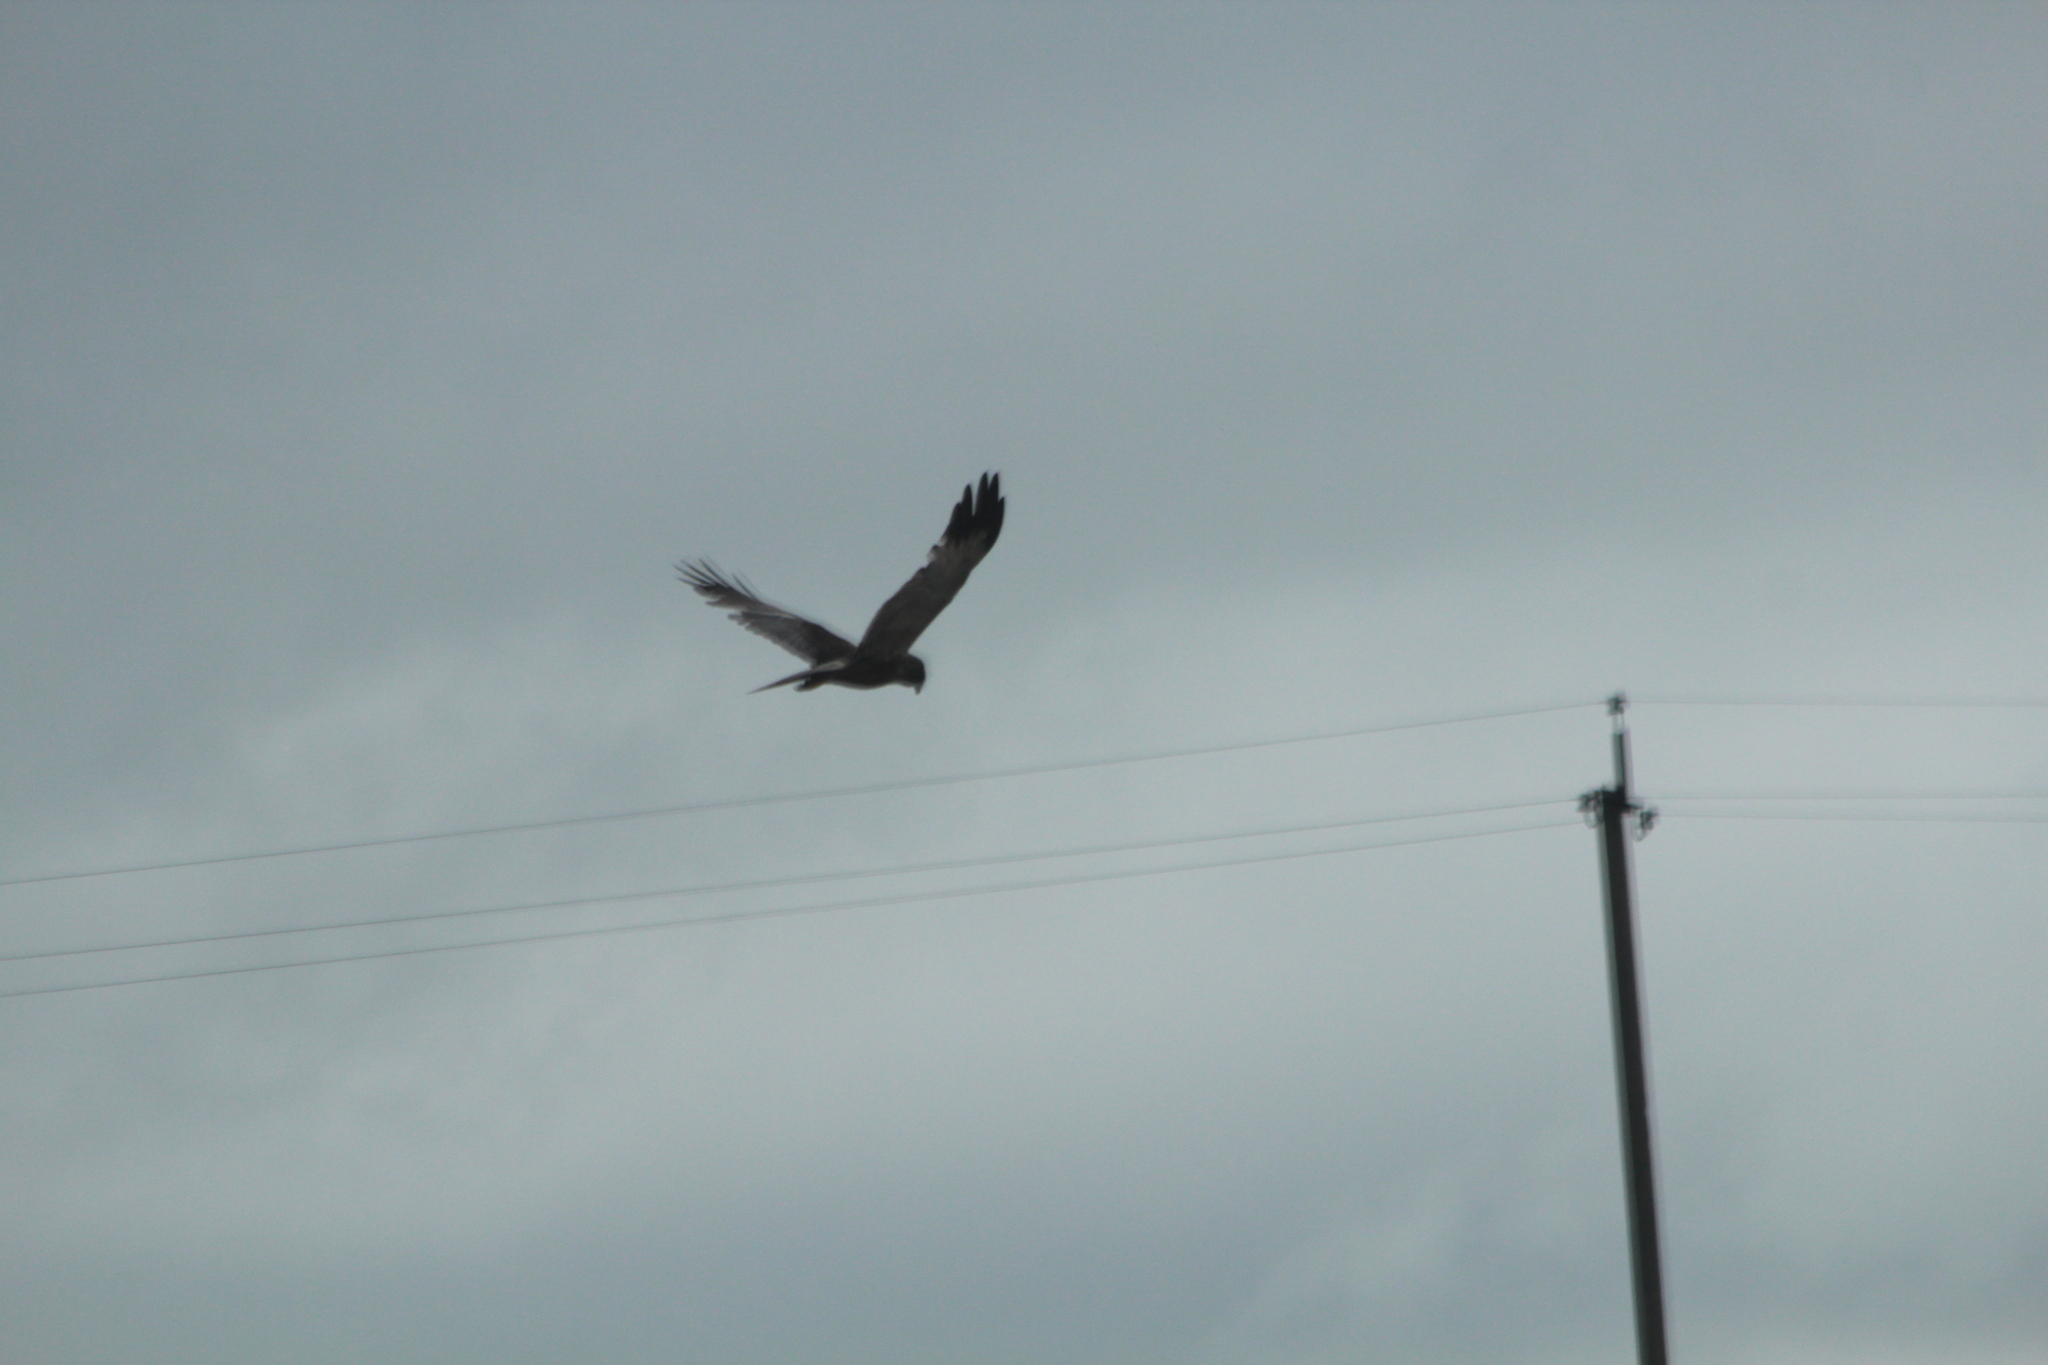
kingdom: Animalia
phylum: Chordata
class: Aves
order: Accipitriformes
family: Accipitridae
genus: Circus
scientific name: Circus aeruginosus
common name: Western marsh harrier
